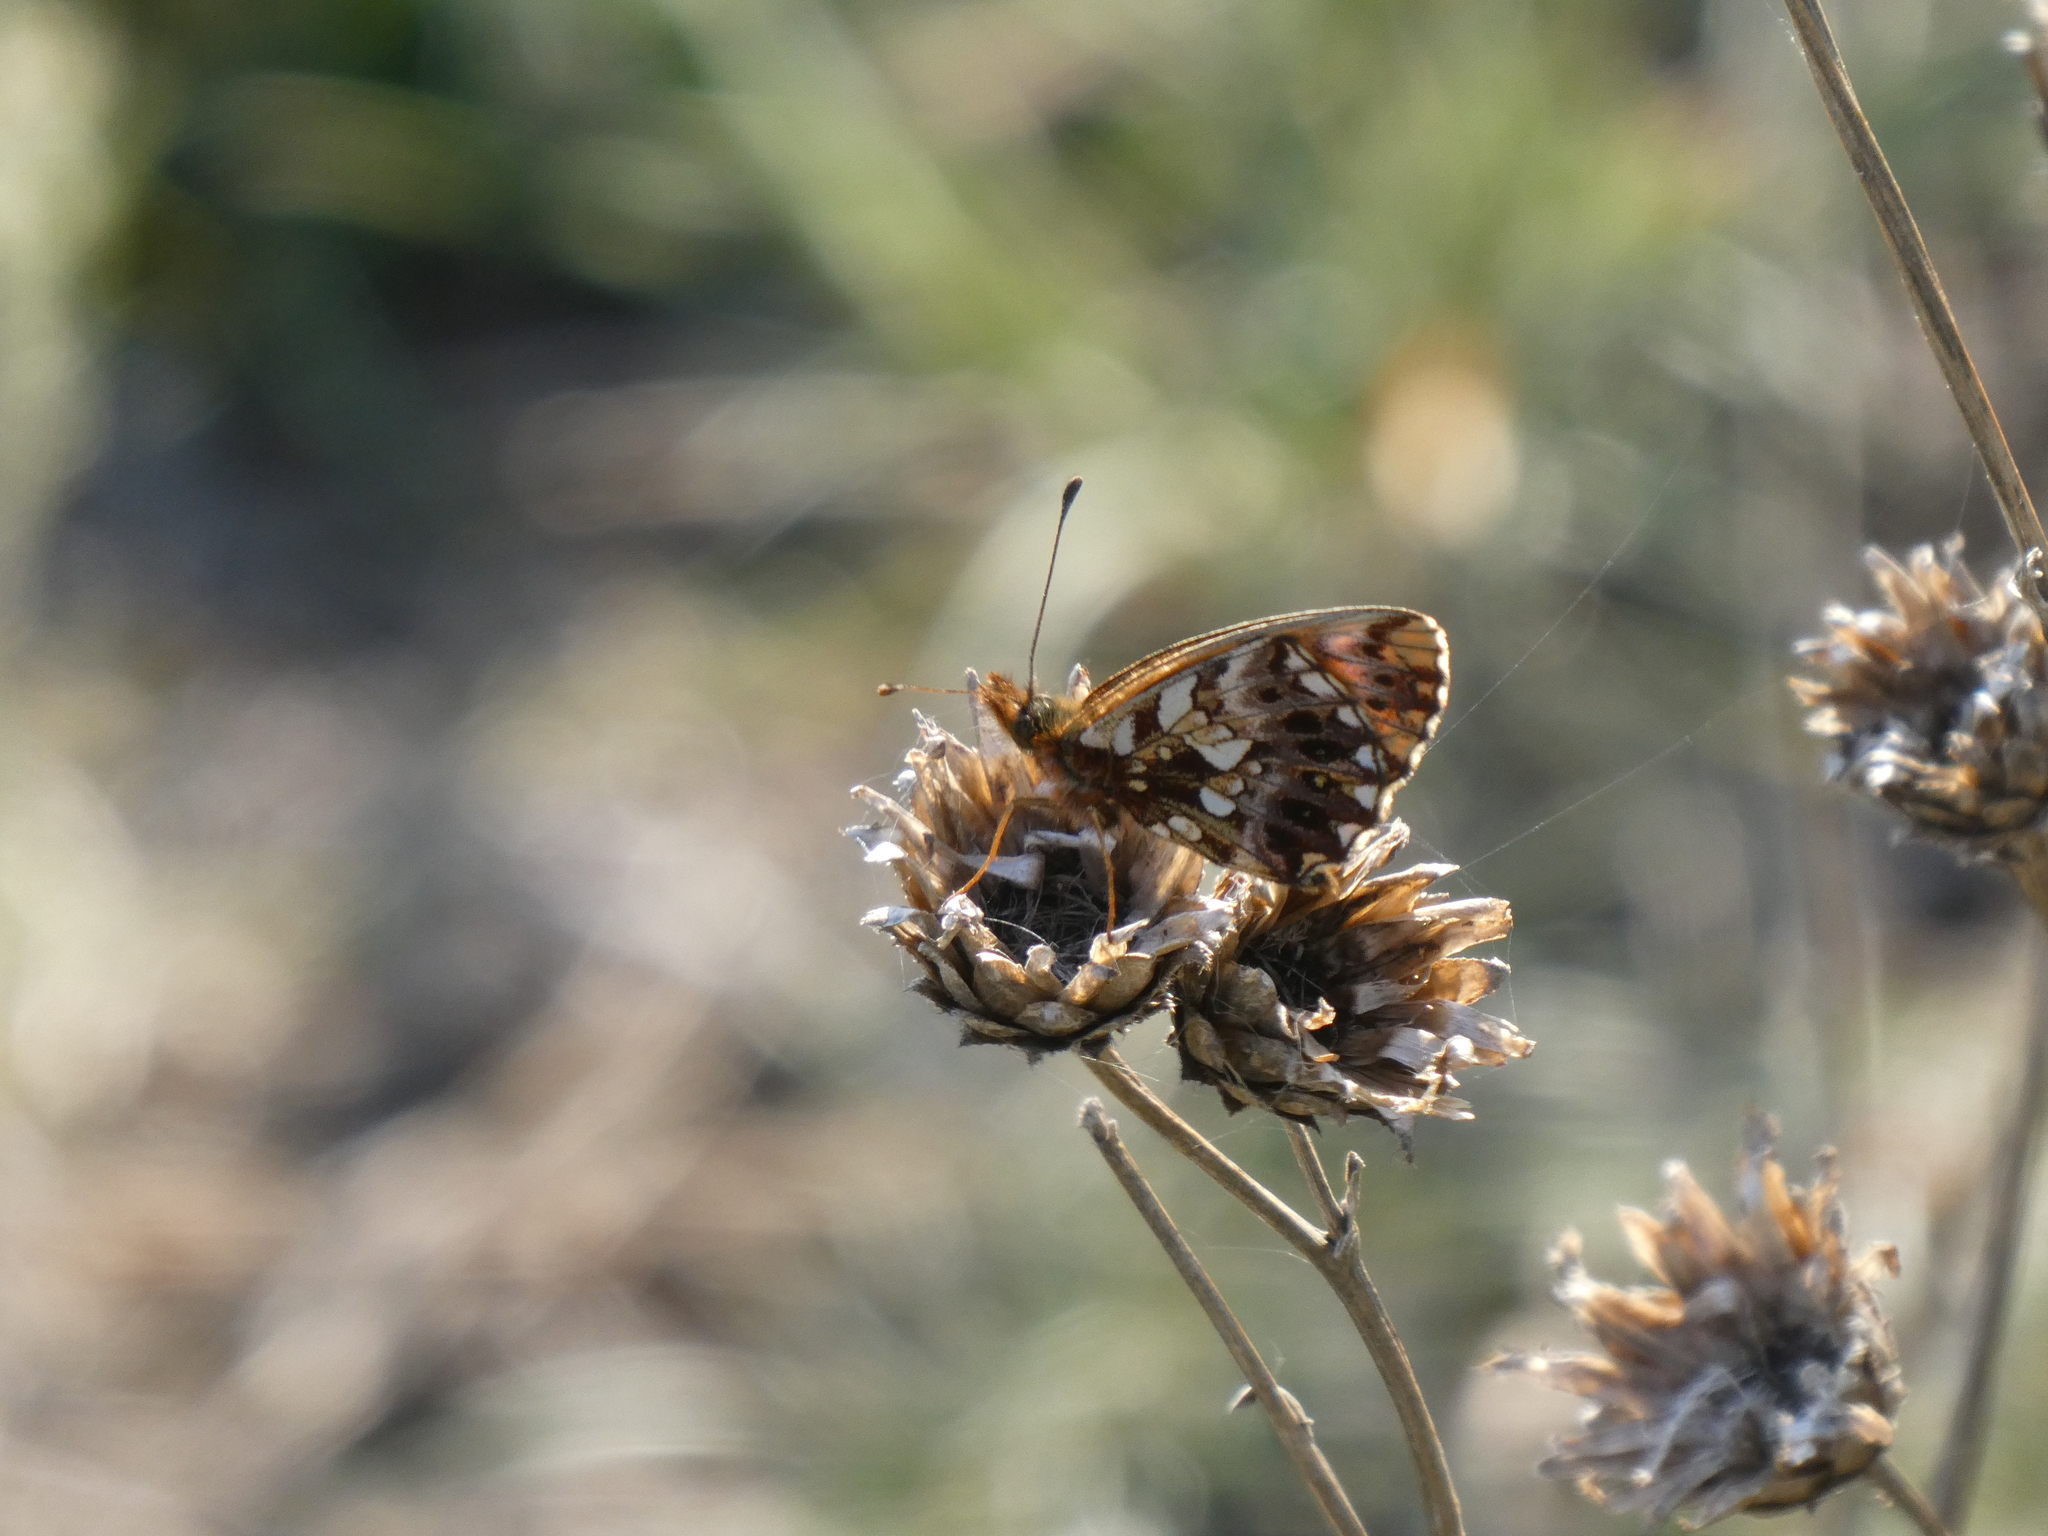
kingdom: Animalia
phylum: Arthropoda
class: Insecta
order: Lepidoptera
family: Nymphalidae
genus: Boloria
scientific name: Boloria dia
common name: Weaver's fritillary
